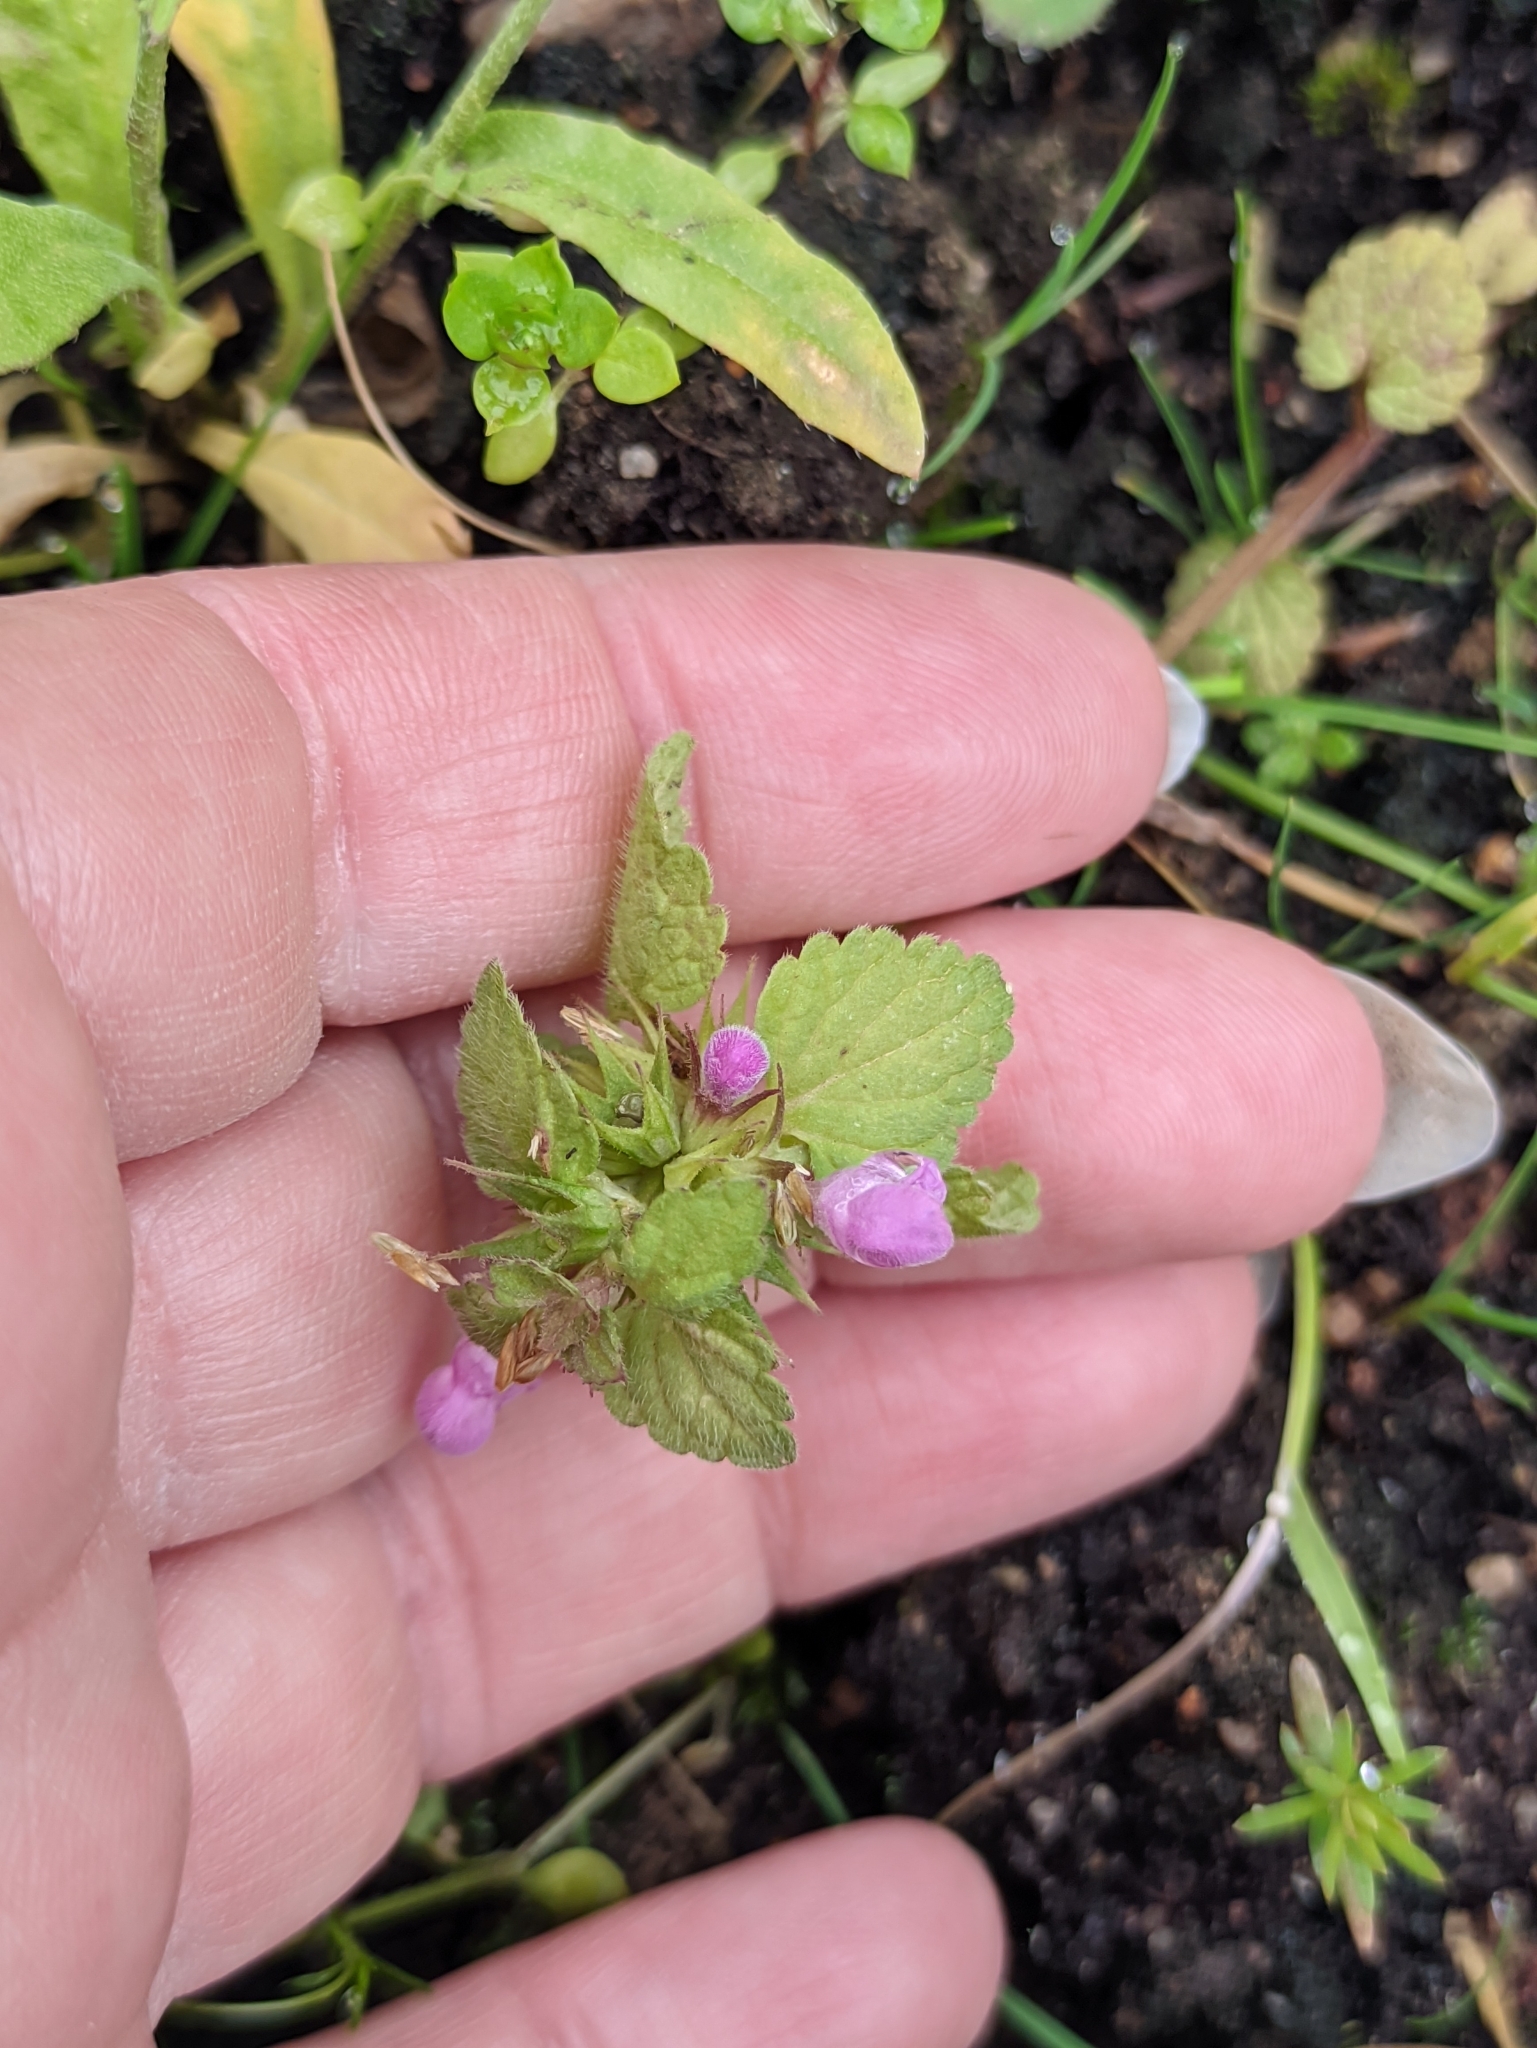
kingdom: Plantae
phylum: Tracheophyta
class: Magnoliopsida
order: Lamiales
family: Lamiaceae
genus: Lamium
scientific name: Lamium purpureum
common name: Red dead-nettle
